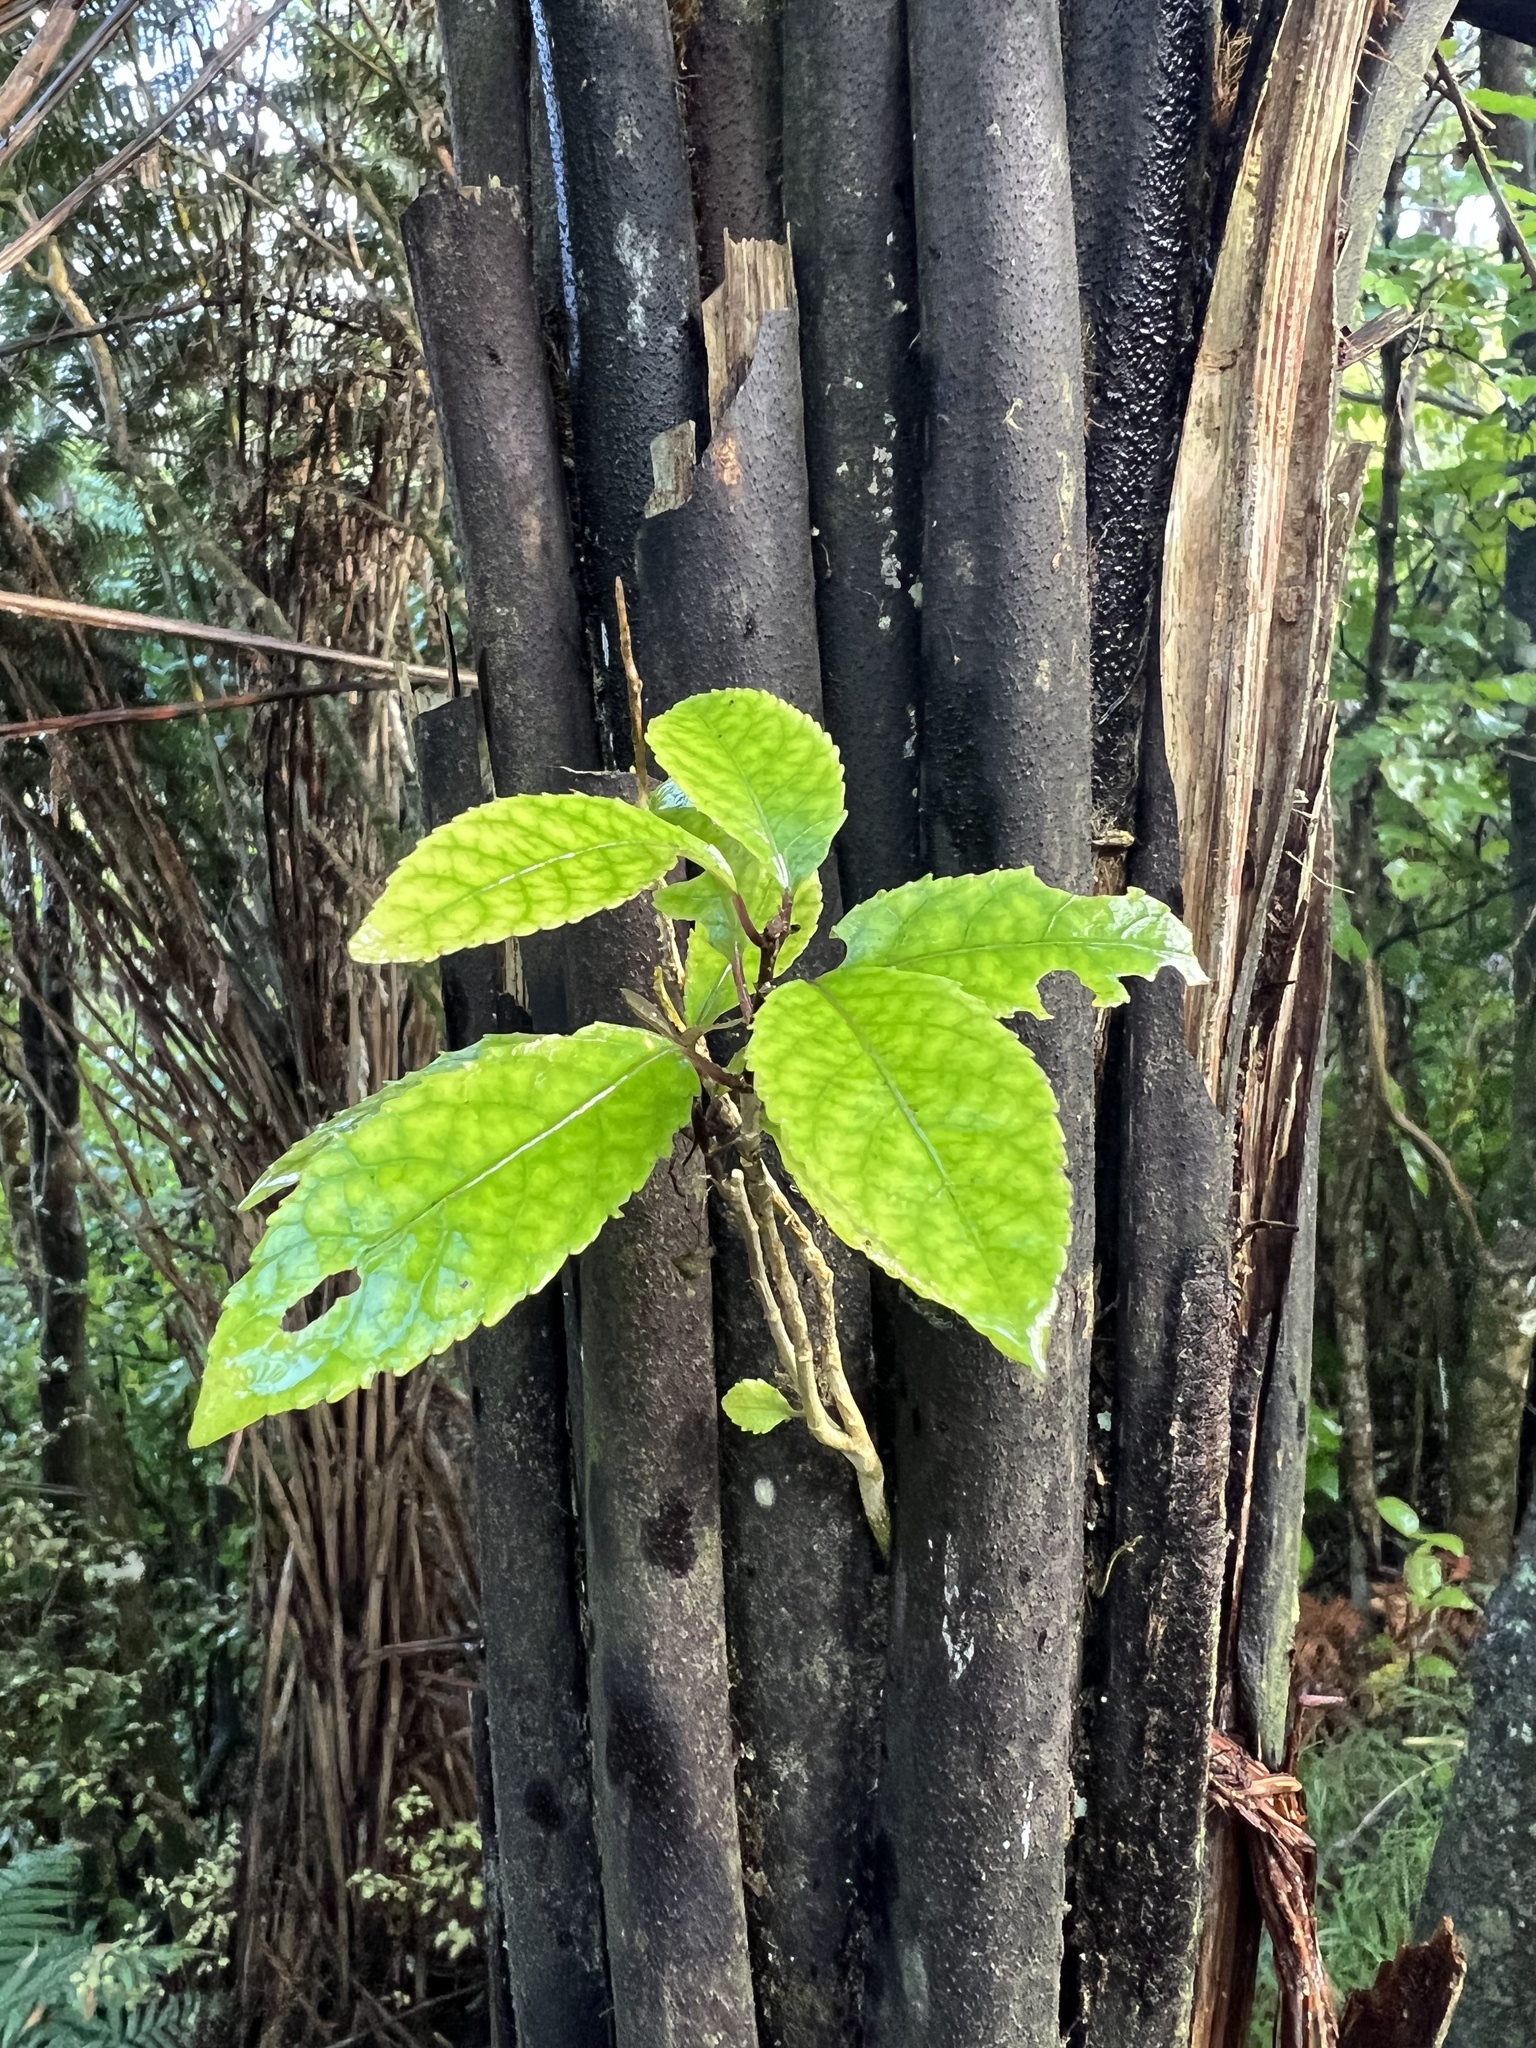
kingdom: Plantae
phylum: Tracheophyta
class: Magnoliopsida
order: Malpighiales
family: Violaceae
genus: Melicytus
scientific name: Melicytus ramiflorus
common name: Mahoe
